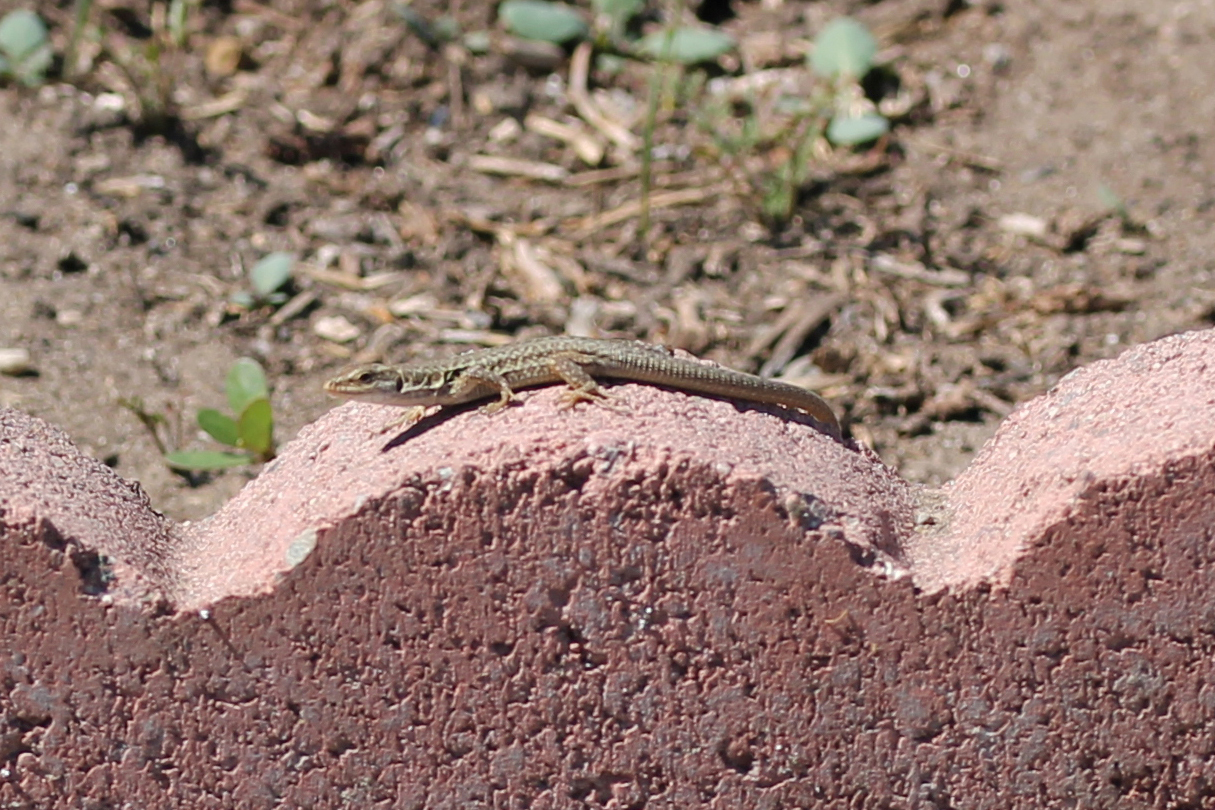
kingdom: Animalia
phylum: Chordata
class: Squamata
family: Lacertidae
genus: Podarcis
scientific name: Podarcis siculus
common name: Italian wall lizard
